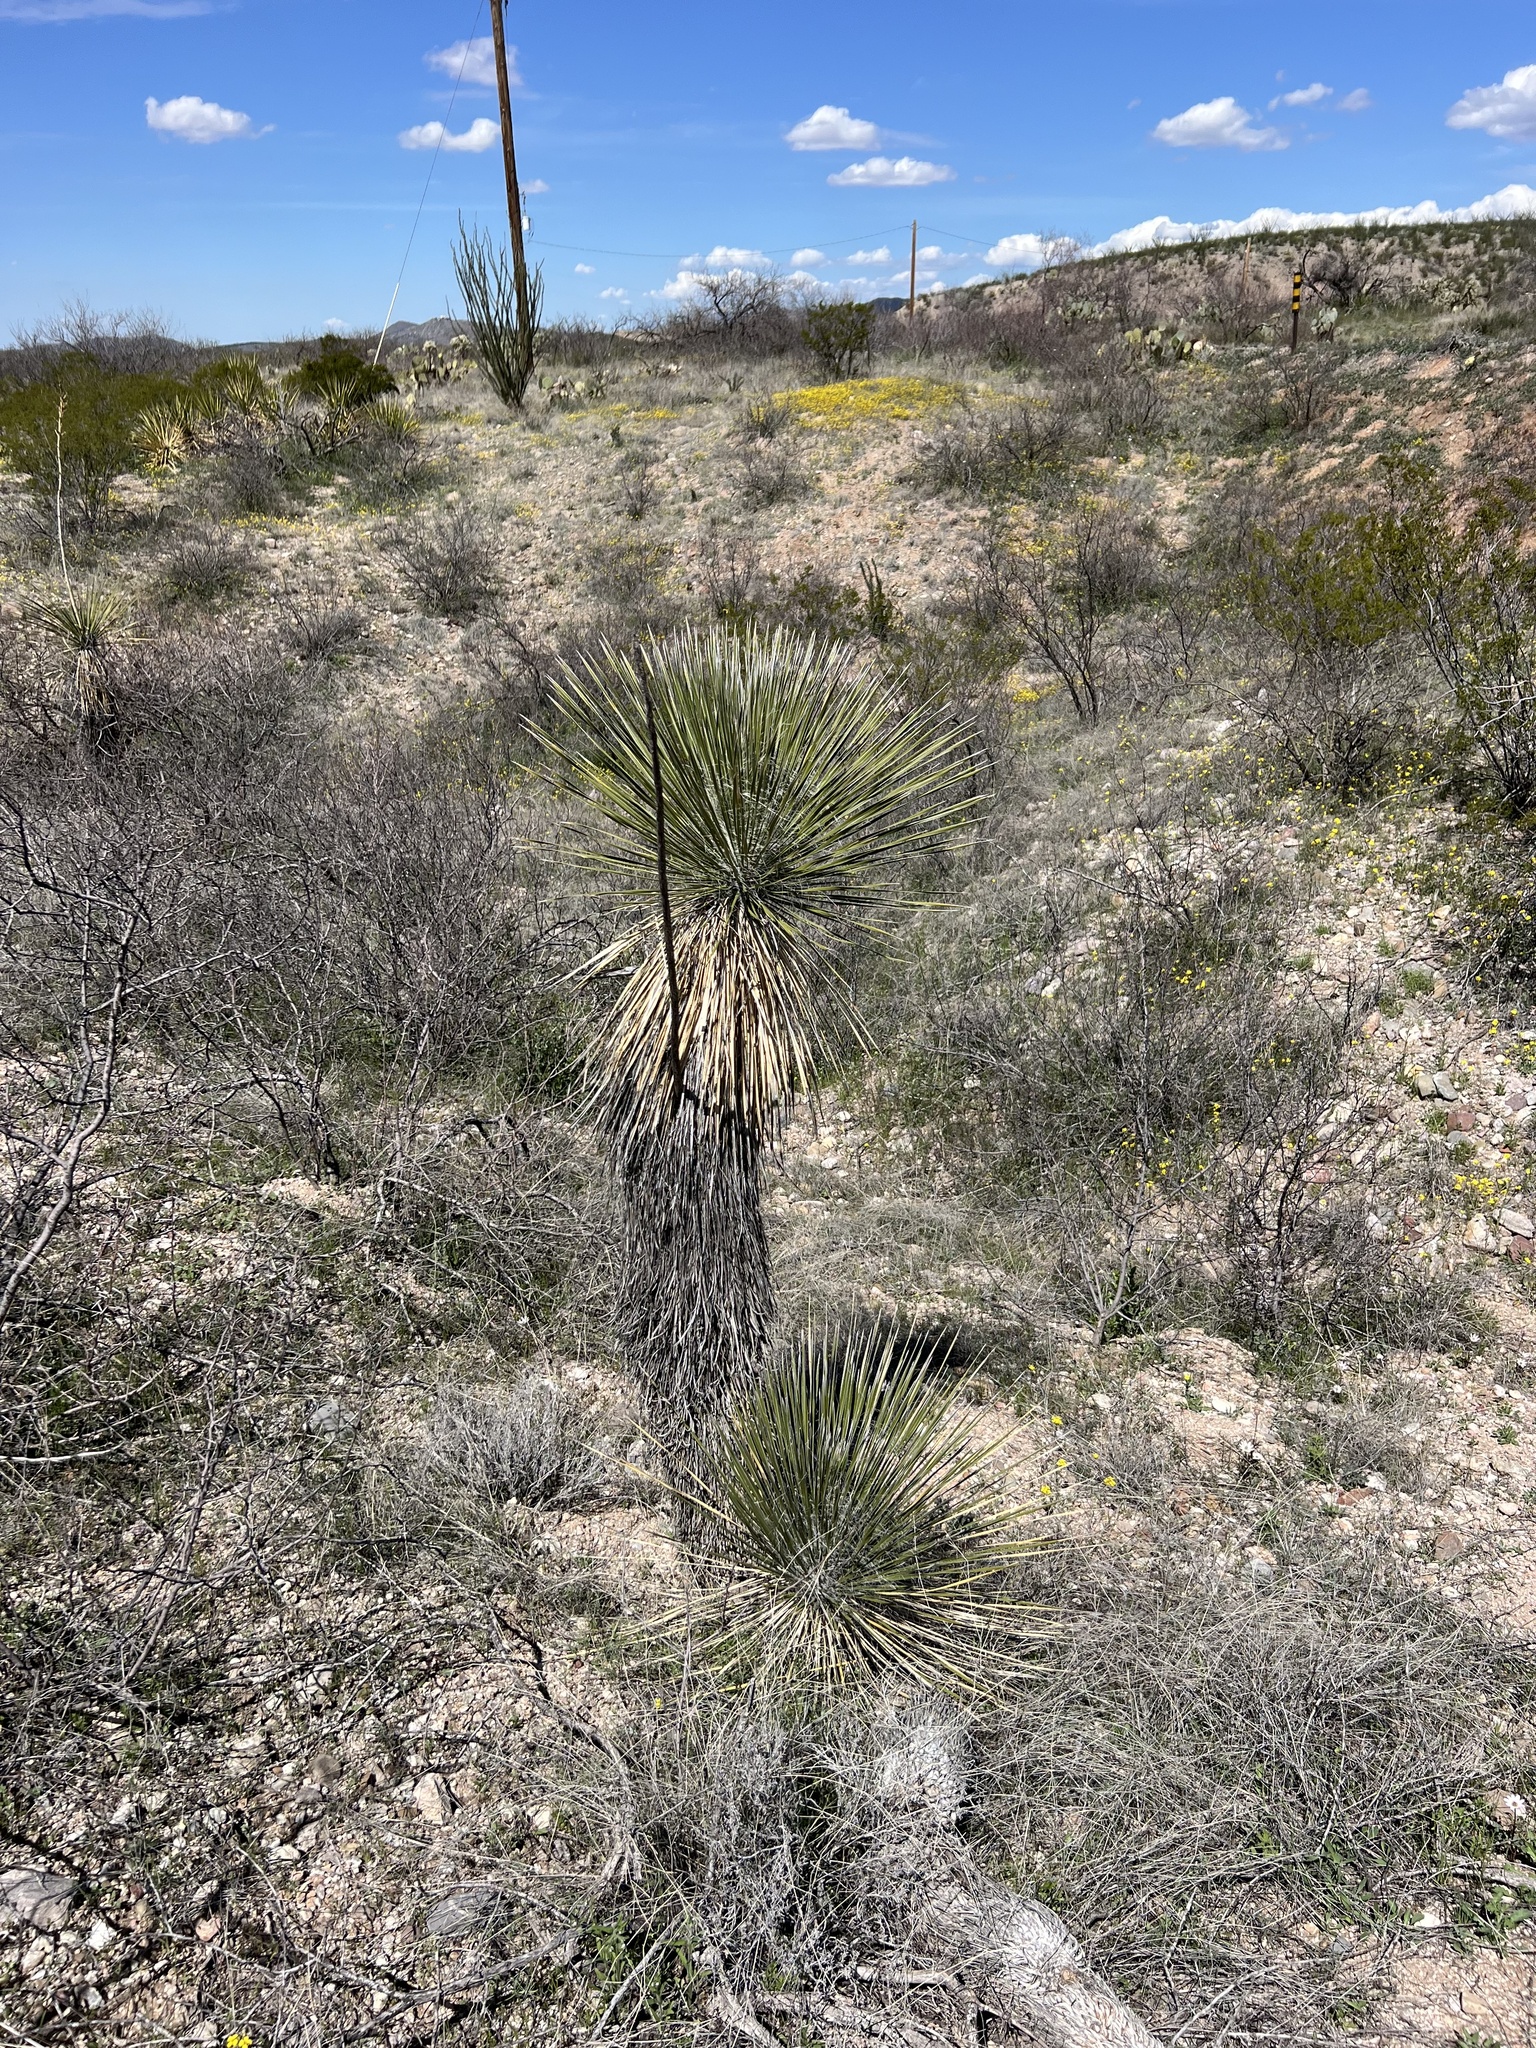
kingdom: Plantae
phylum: Tracheophyta
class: Liliopsida
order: Asparagales
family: Asparagaceae
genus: Yucca
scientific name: Yucca elata
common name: Palmella
